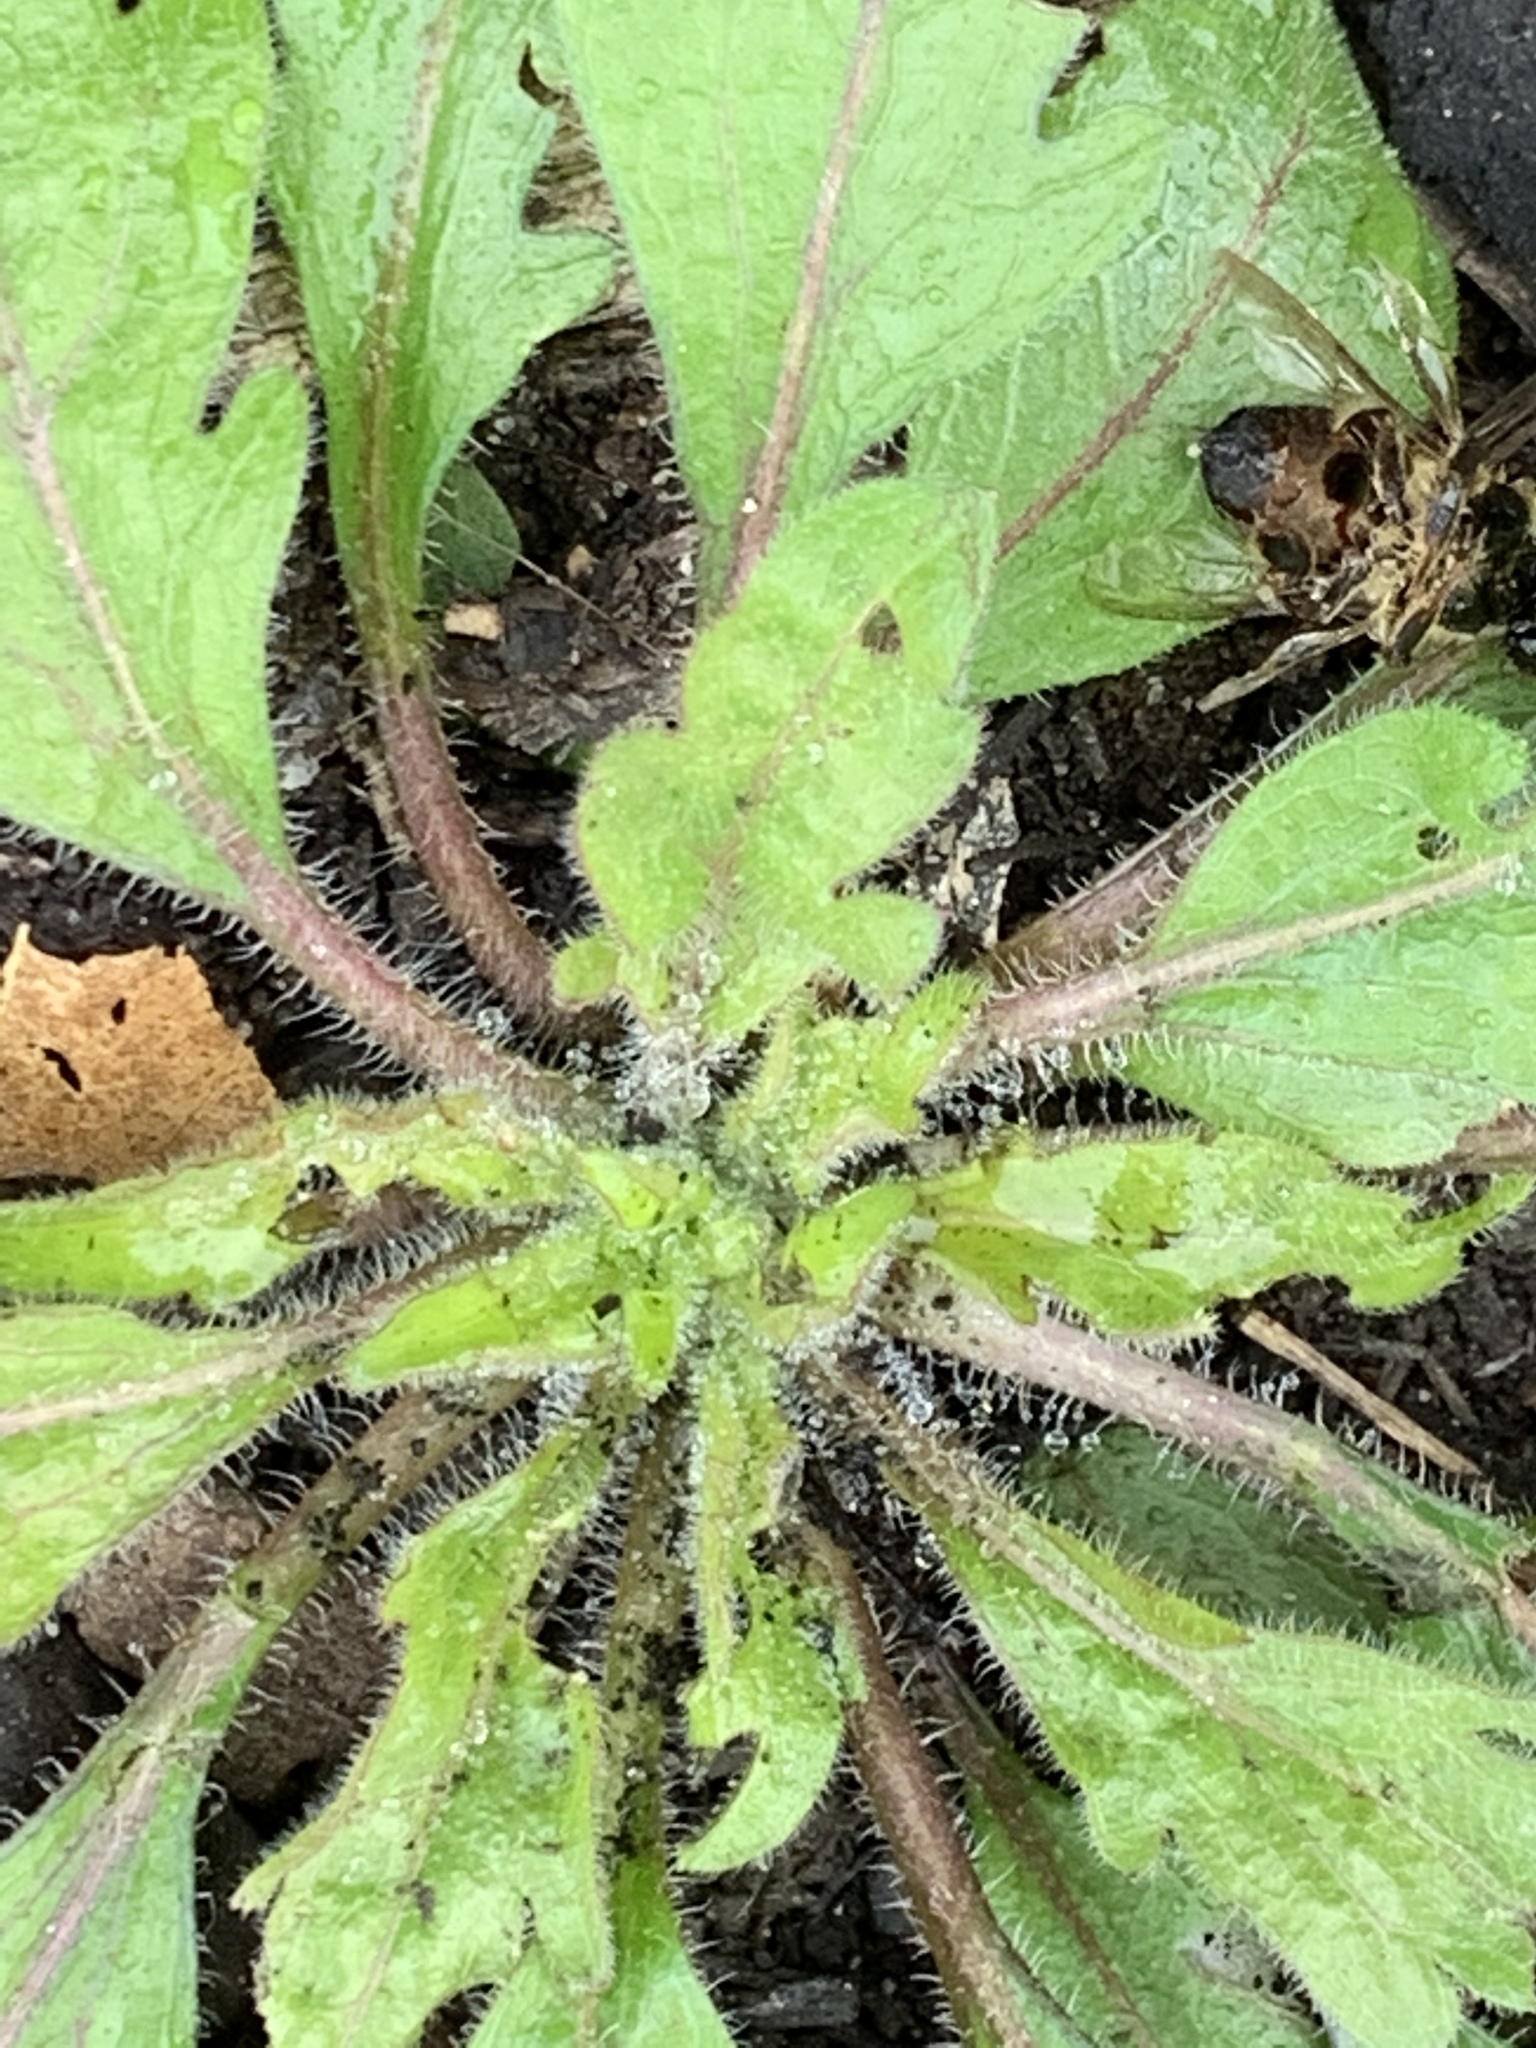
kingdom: Plantae
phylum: Tracheophyta
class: Magnoliopsida
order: Asterales
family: Asteraceae
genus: Erigeron
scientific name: Erigeron canadensis
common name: Canadian fleabane
